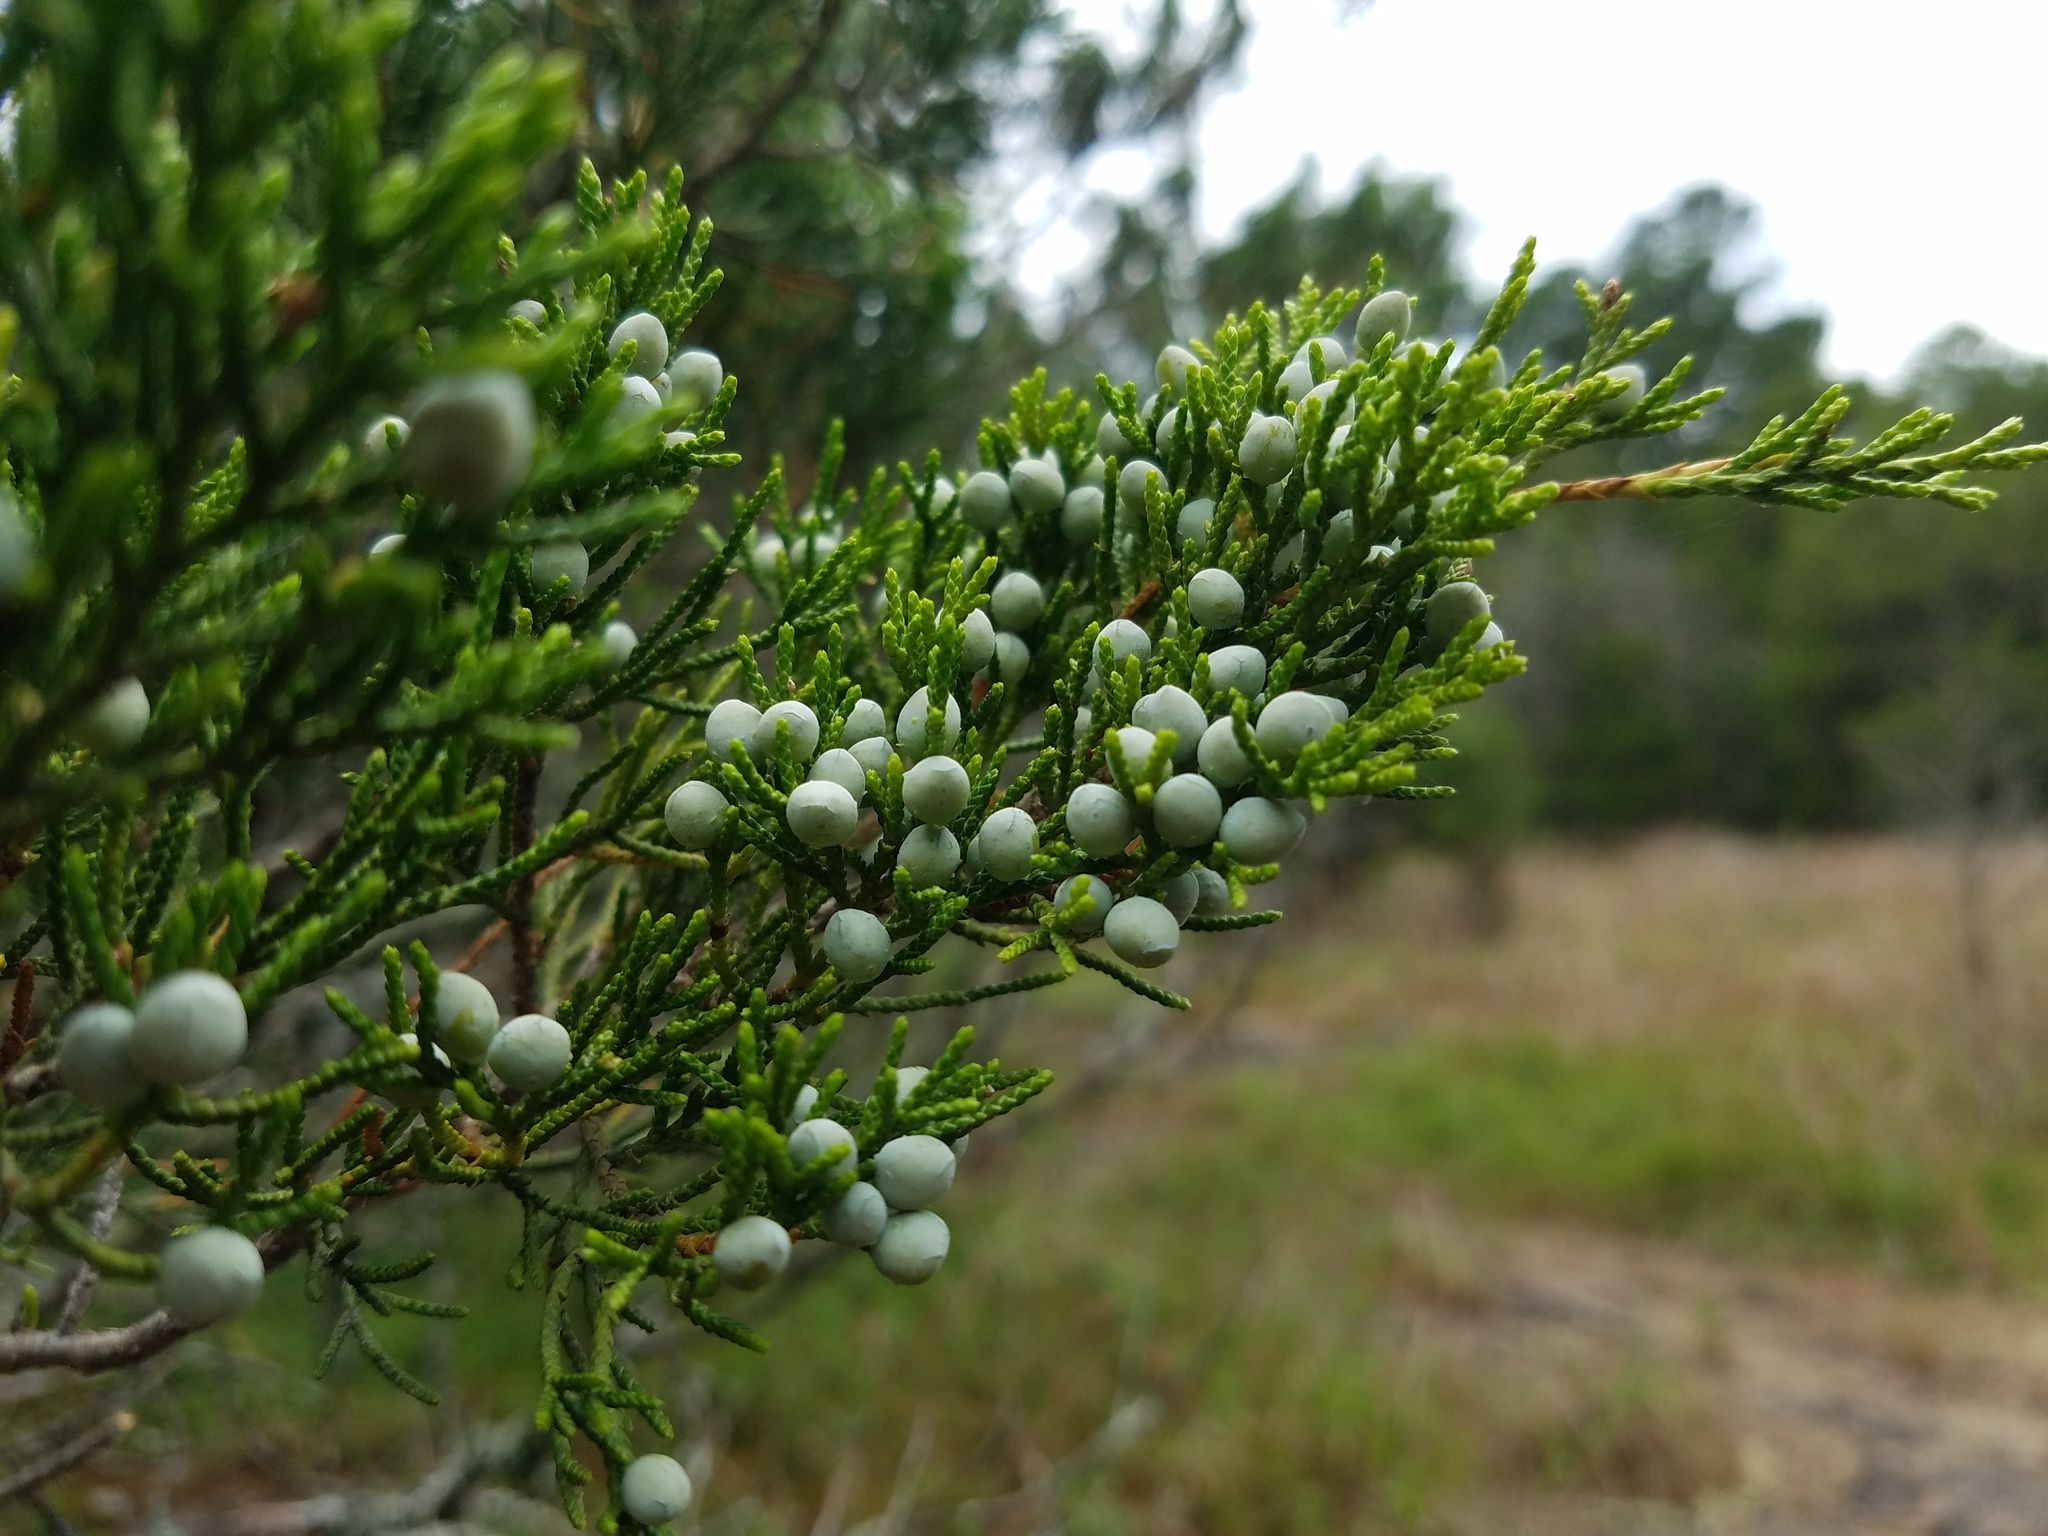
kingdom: Plantae
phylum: Tracheophyta
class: Pinopsida
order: Pinales
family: Cupressaceae
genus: Juniperus
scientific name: Juniperus virginiana
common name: Red juniper
